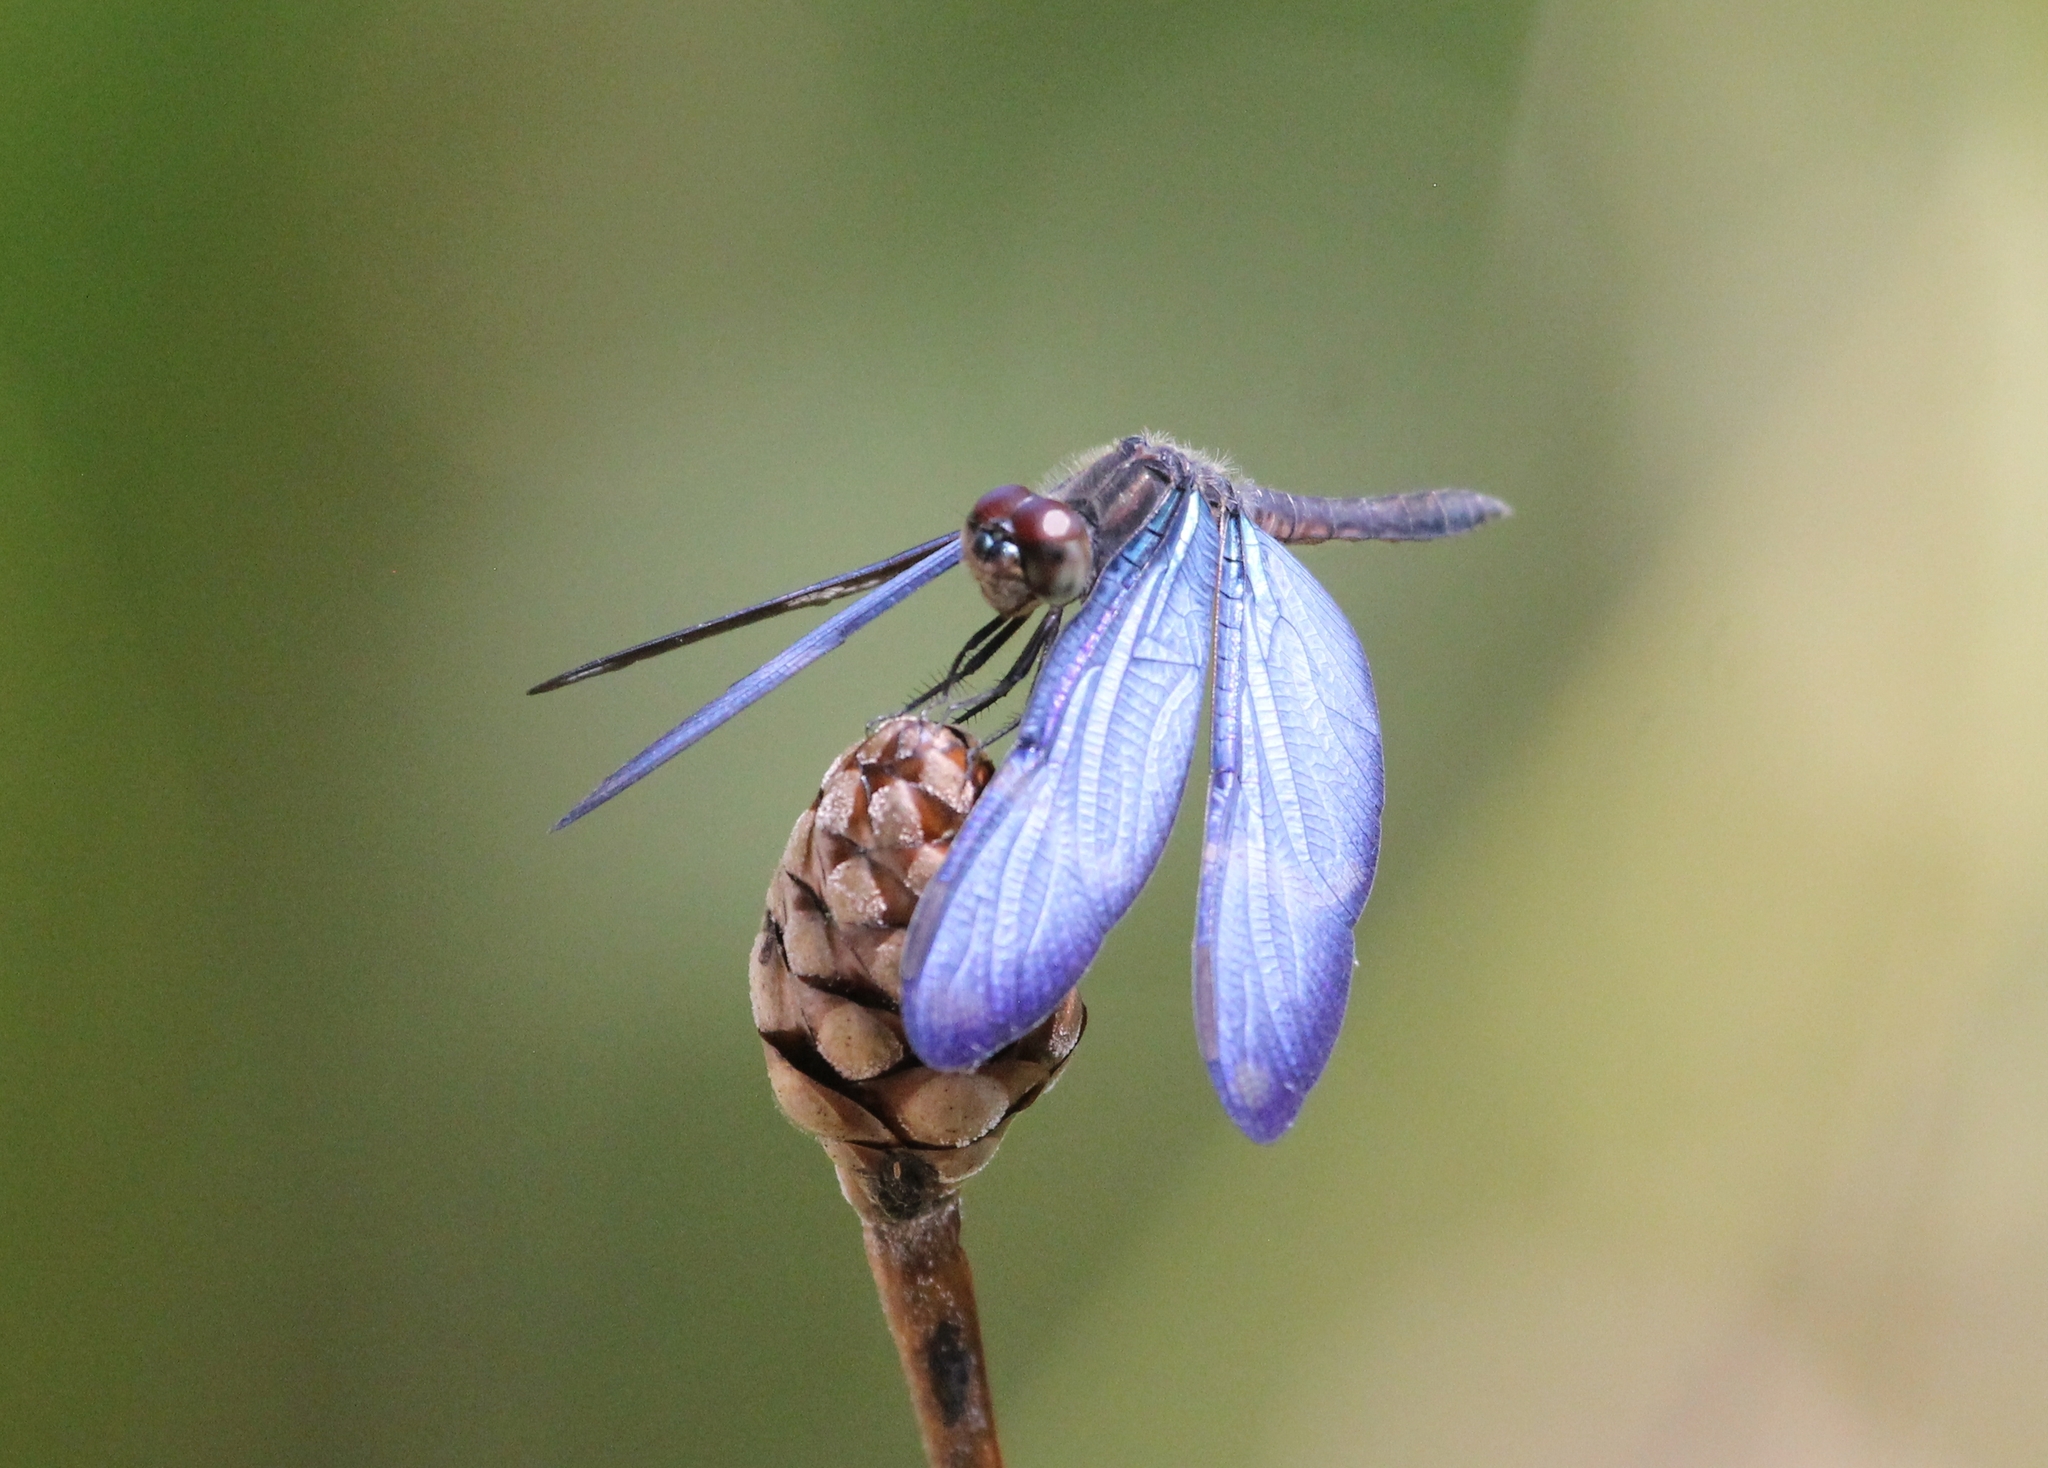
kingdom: Animalia
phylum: Arthropoda
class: Insecta
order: Odonata
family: Libellulidae
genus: Zenithoptera
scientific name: Zenithoptera lanei
